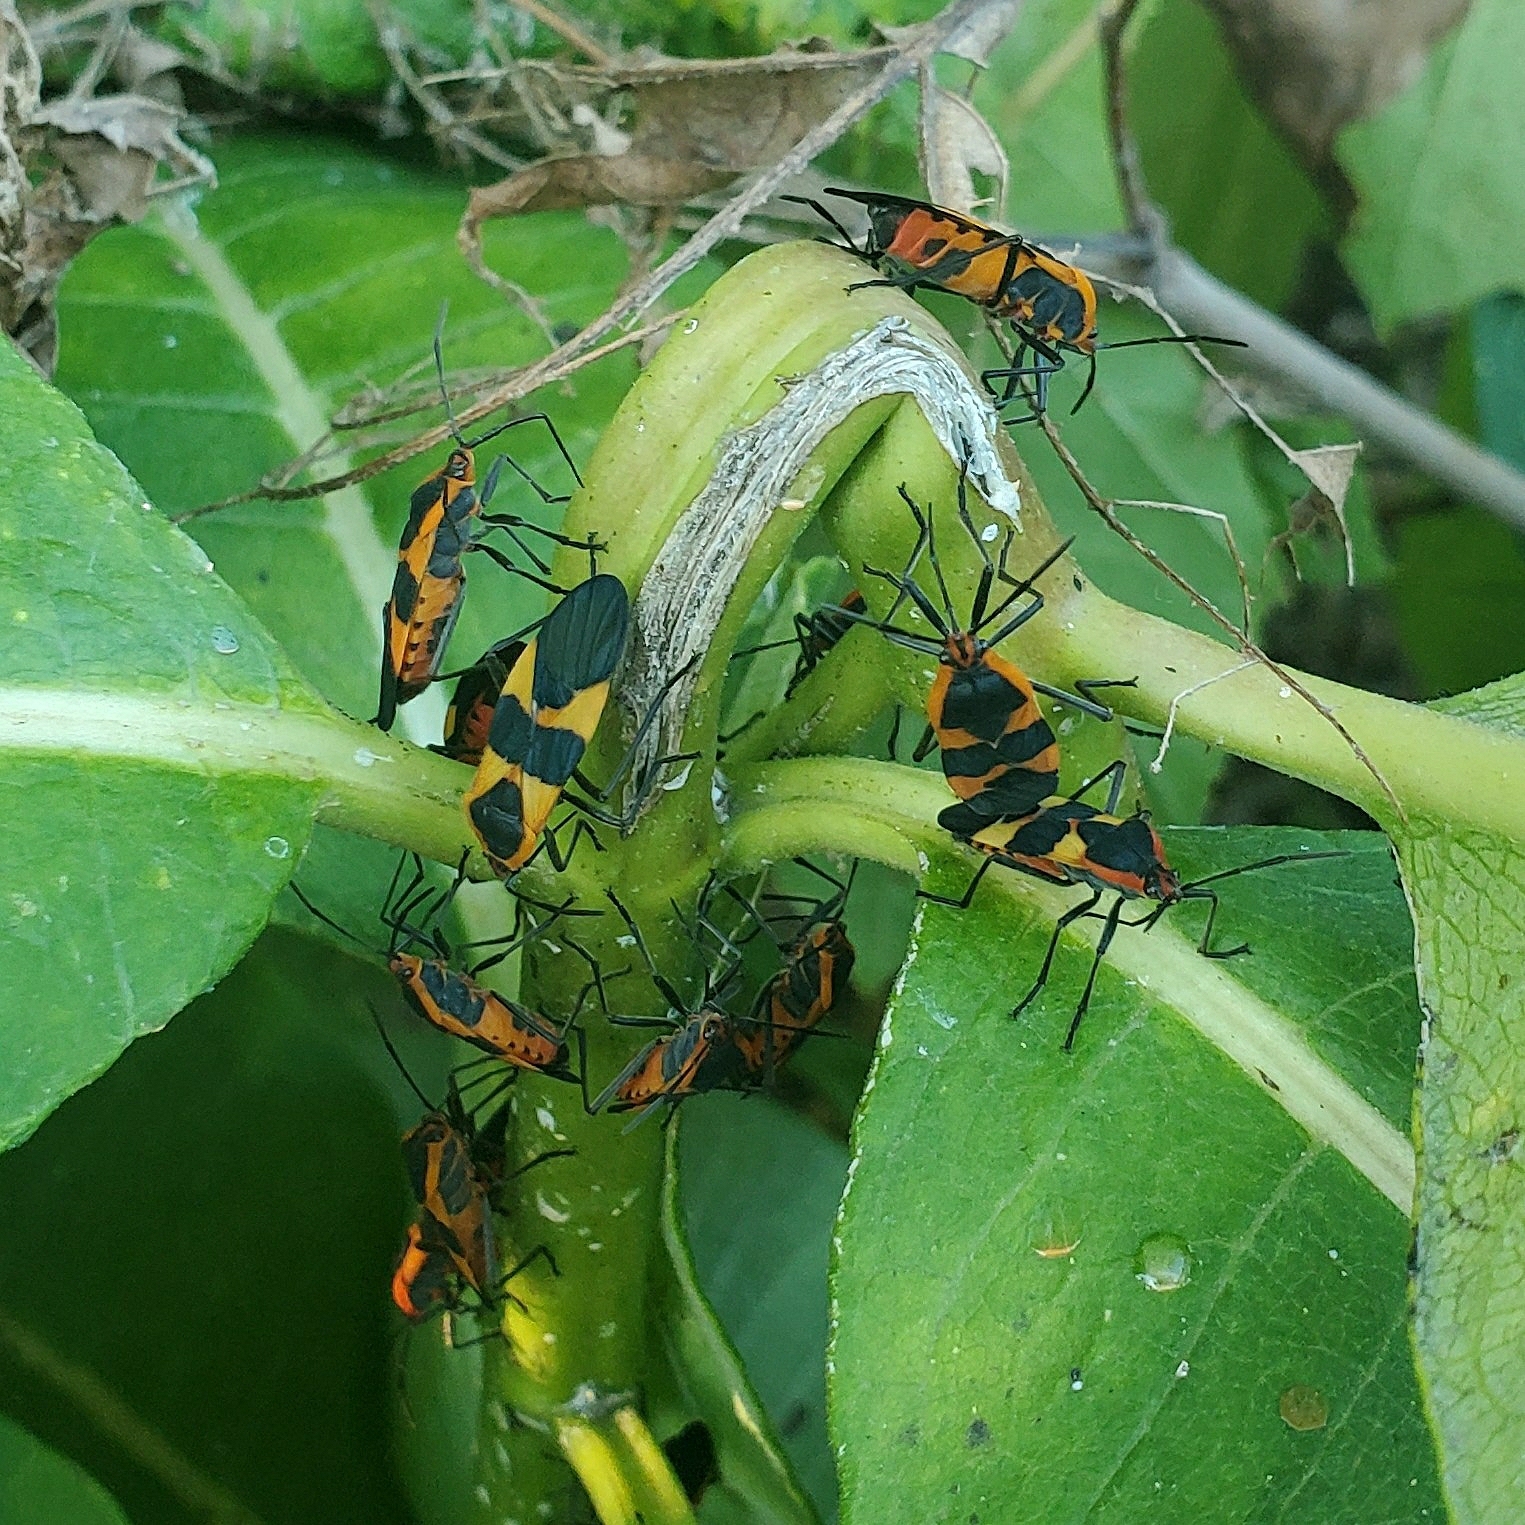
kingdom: Animalia
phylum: Arthropoda
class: Insecta
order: Hemiptera
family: Lygaeidae
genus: Oncopeltus
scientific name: Oncopeltus fasciatus
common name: Large milkweed bug
